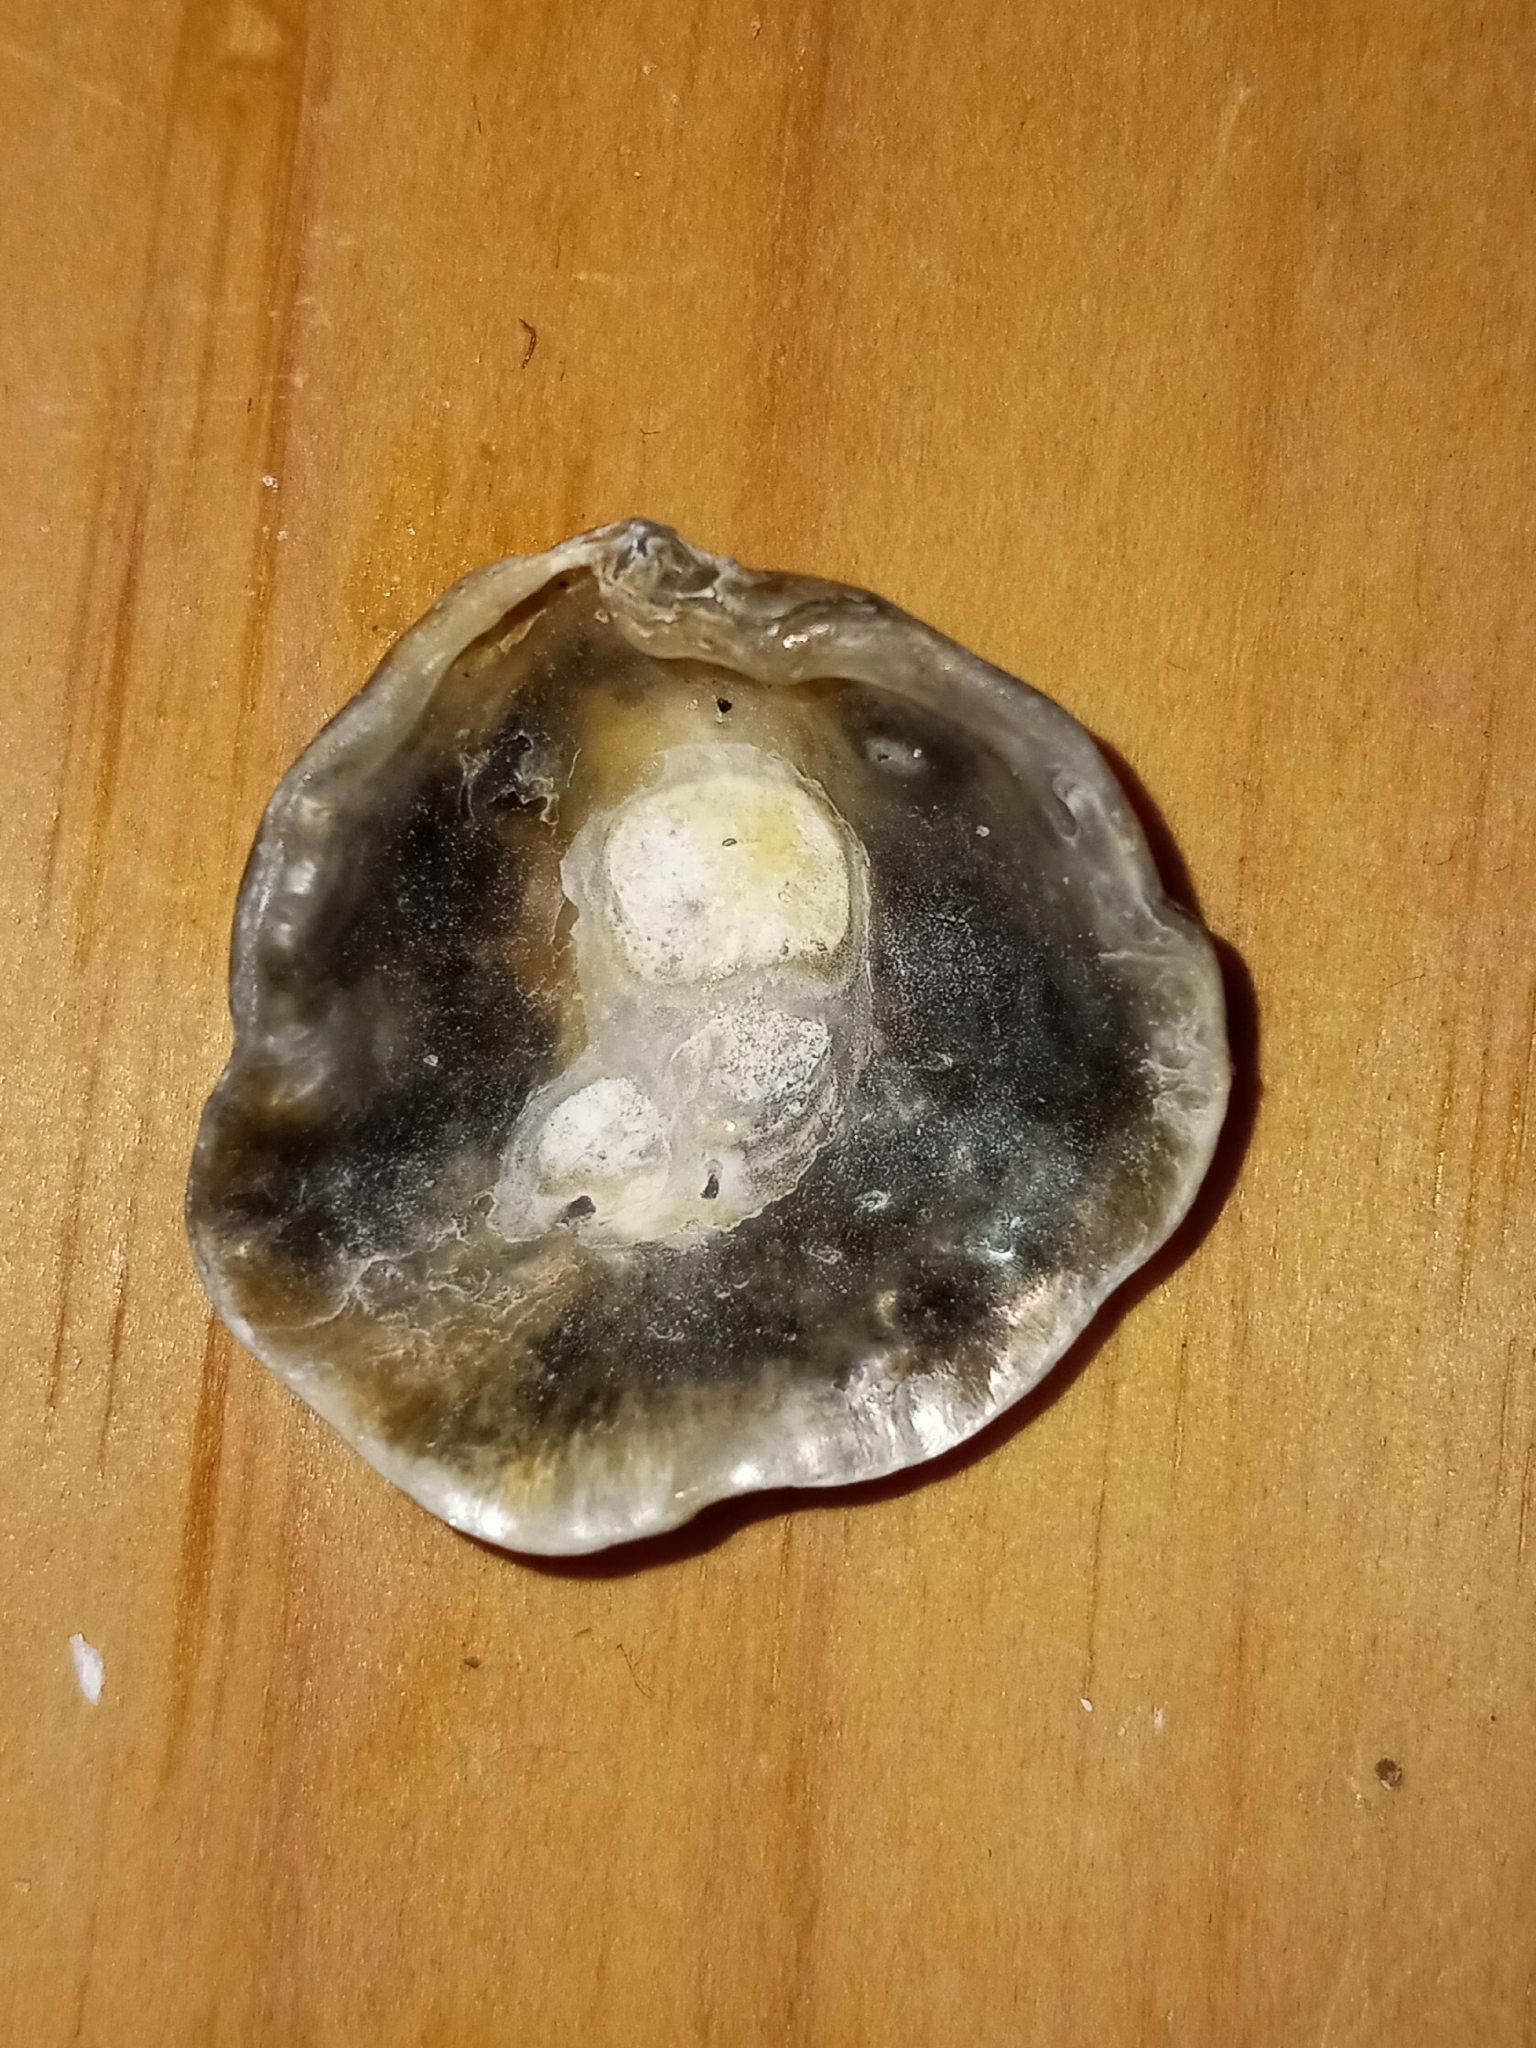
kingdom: Animalia
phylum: Mollusca
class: Bivalvia
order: Pectinida
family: Anomiidae
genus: Anomia
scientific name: Anomia simplex
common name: Common jingle shell
